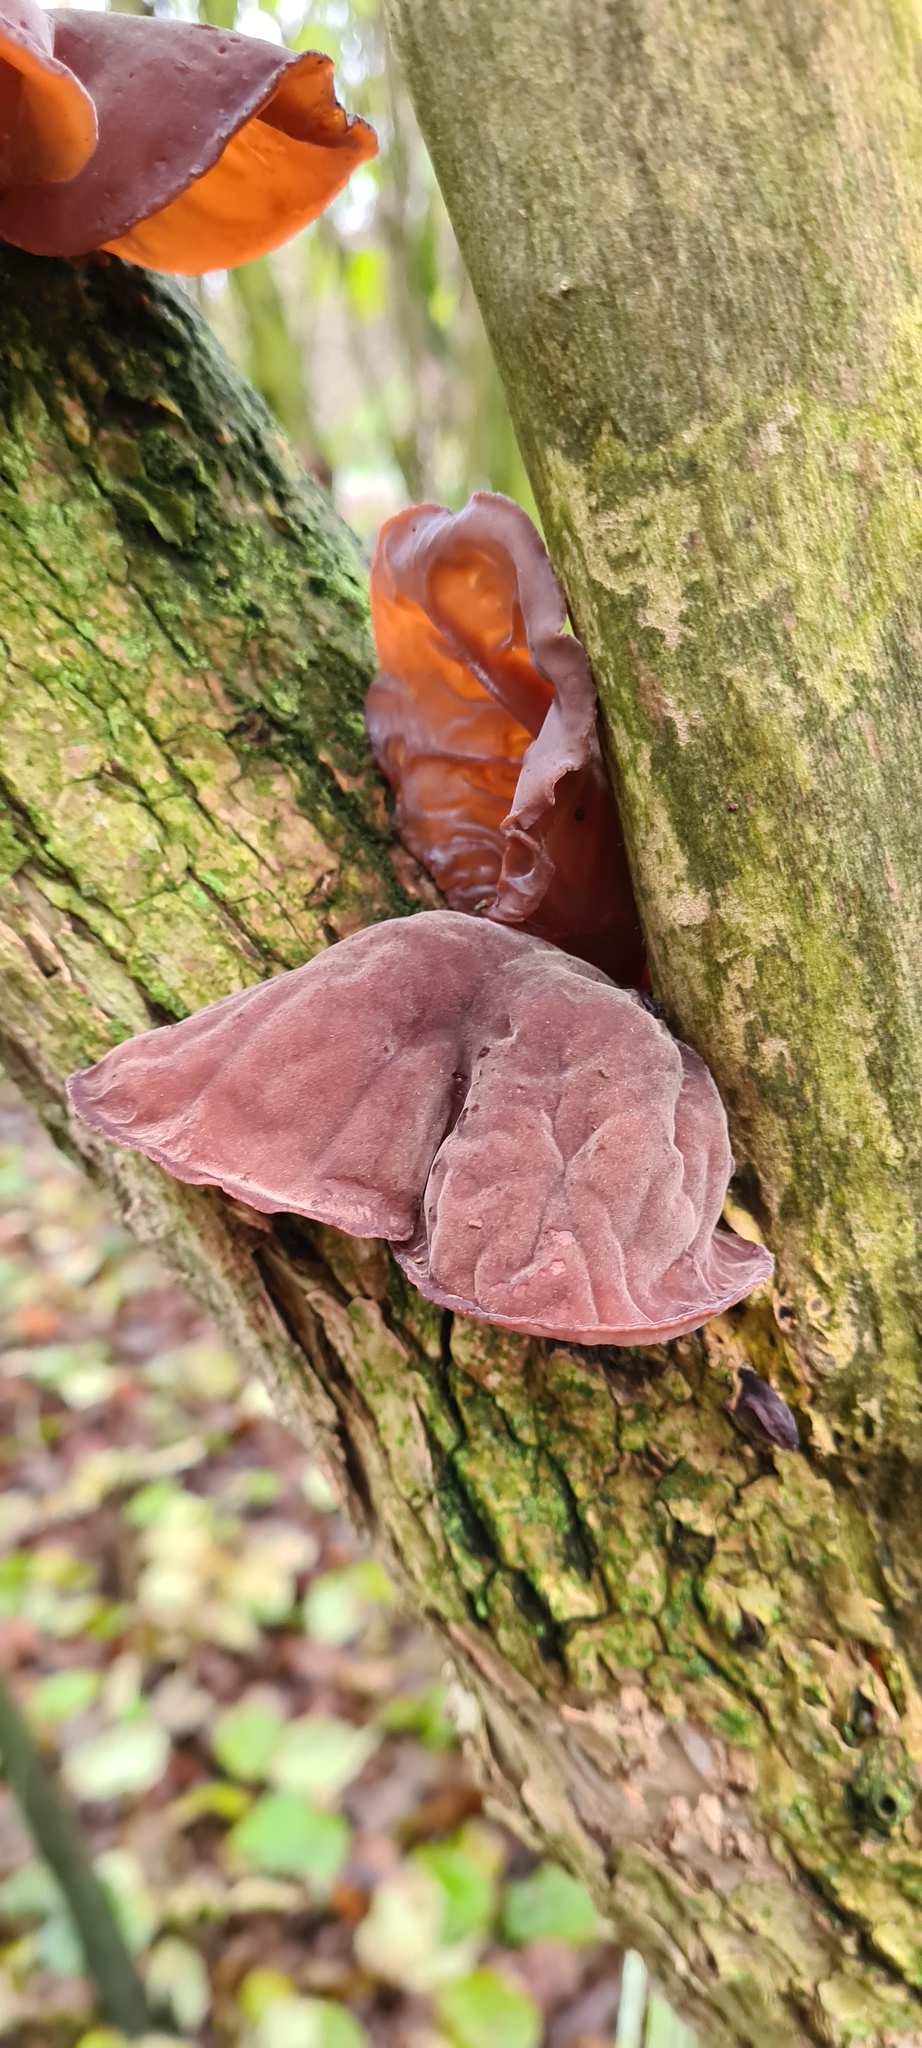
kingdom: Fungi
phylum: Basidiomycota
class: Agaricomycetes
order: Auriculariales
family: Auriculariaceae
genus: Auricularia
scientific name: Auricularia auricula-judae
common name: Jelly ear
